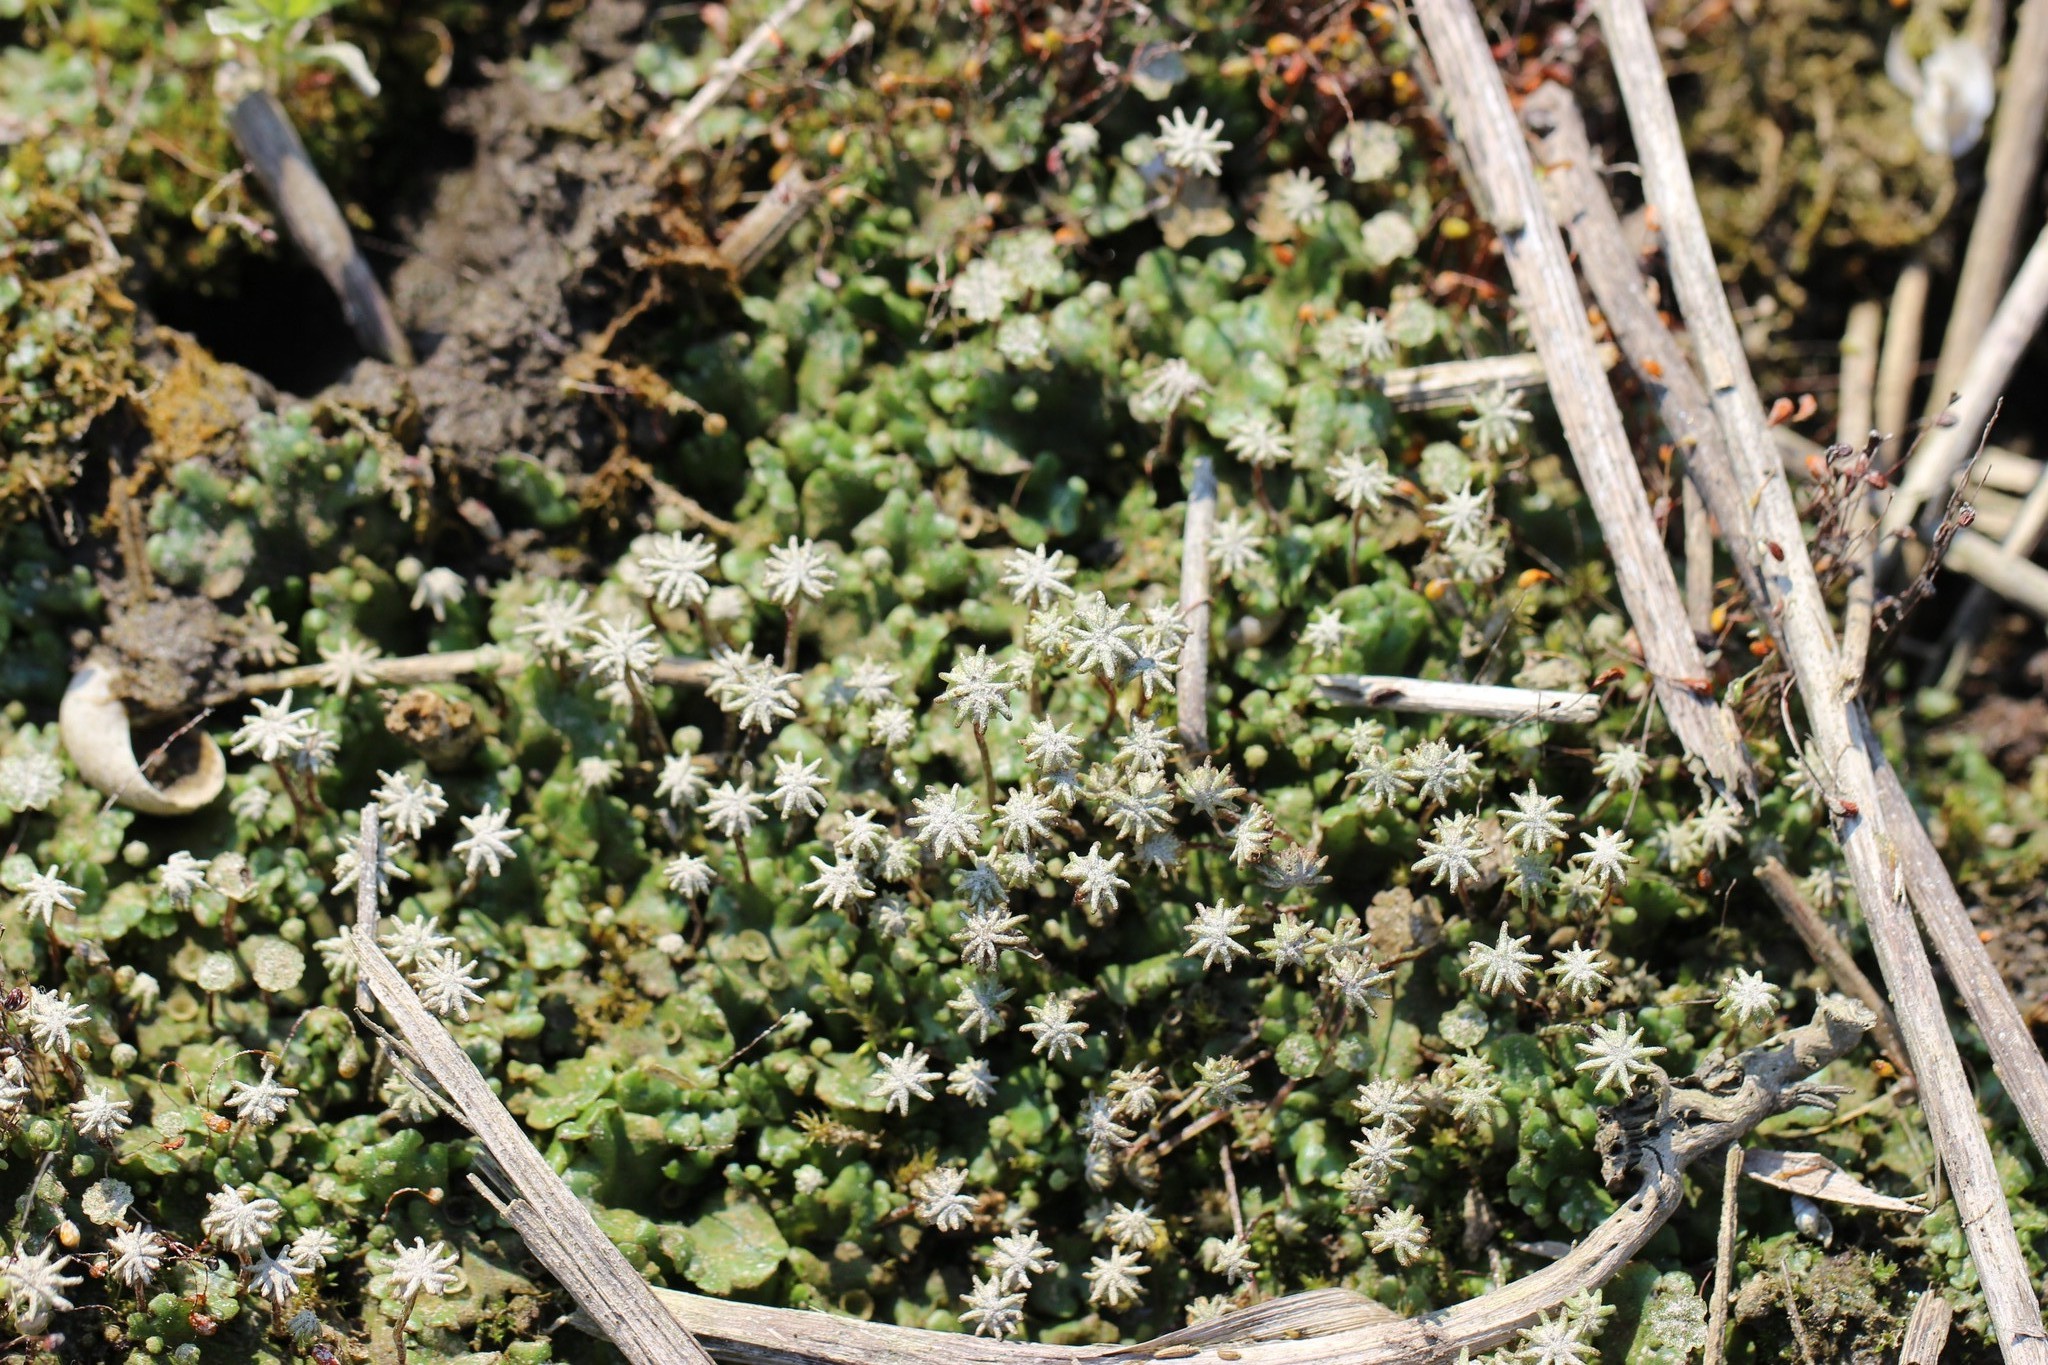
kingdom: Plantae
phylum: Marchantiophyta
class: Marchantiopsida
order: Marchantiales
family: Marchantiaceae
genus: Marchantia
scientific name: Marchantia polymorpha
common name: Common liverwort
